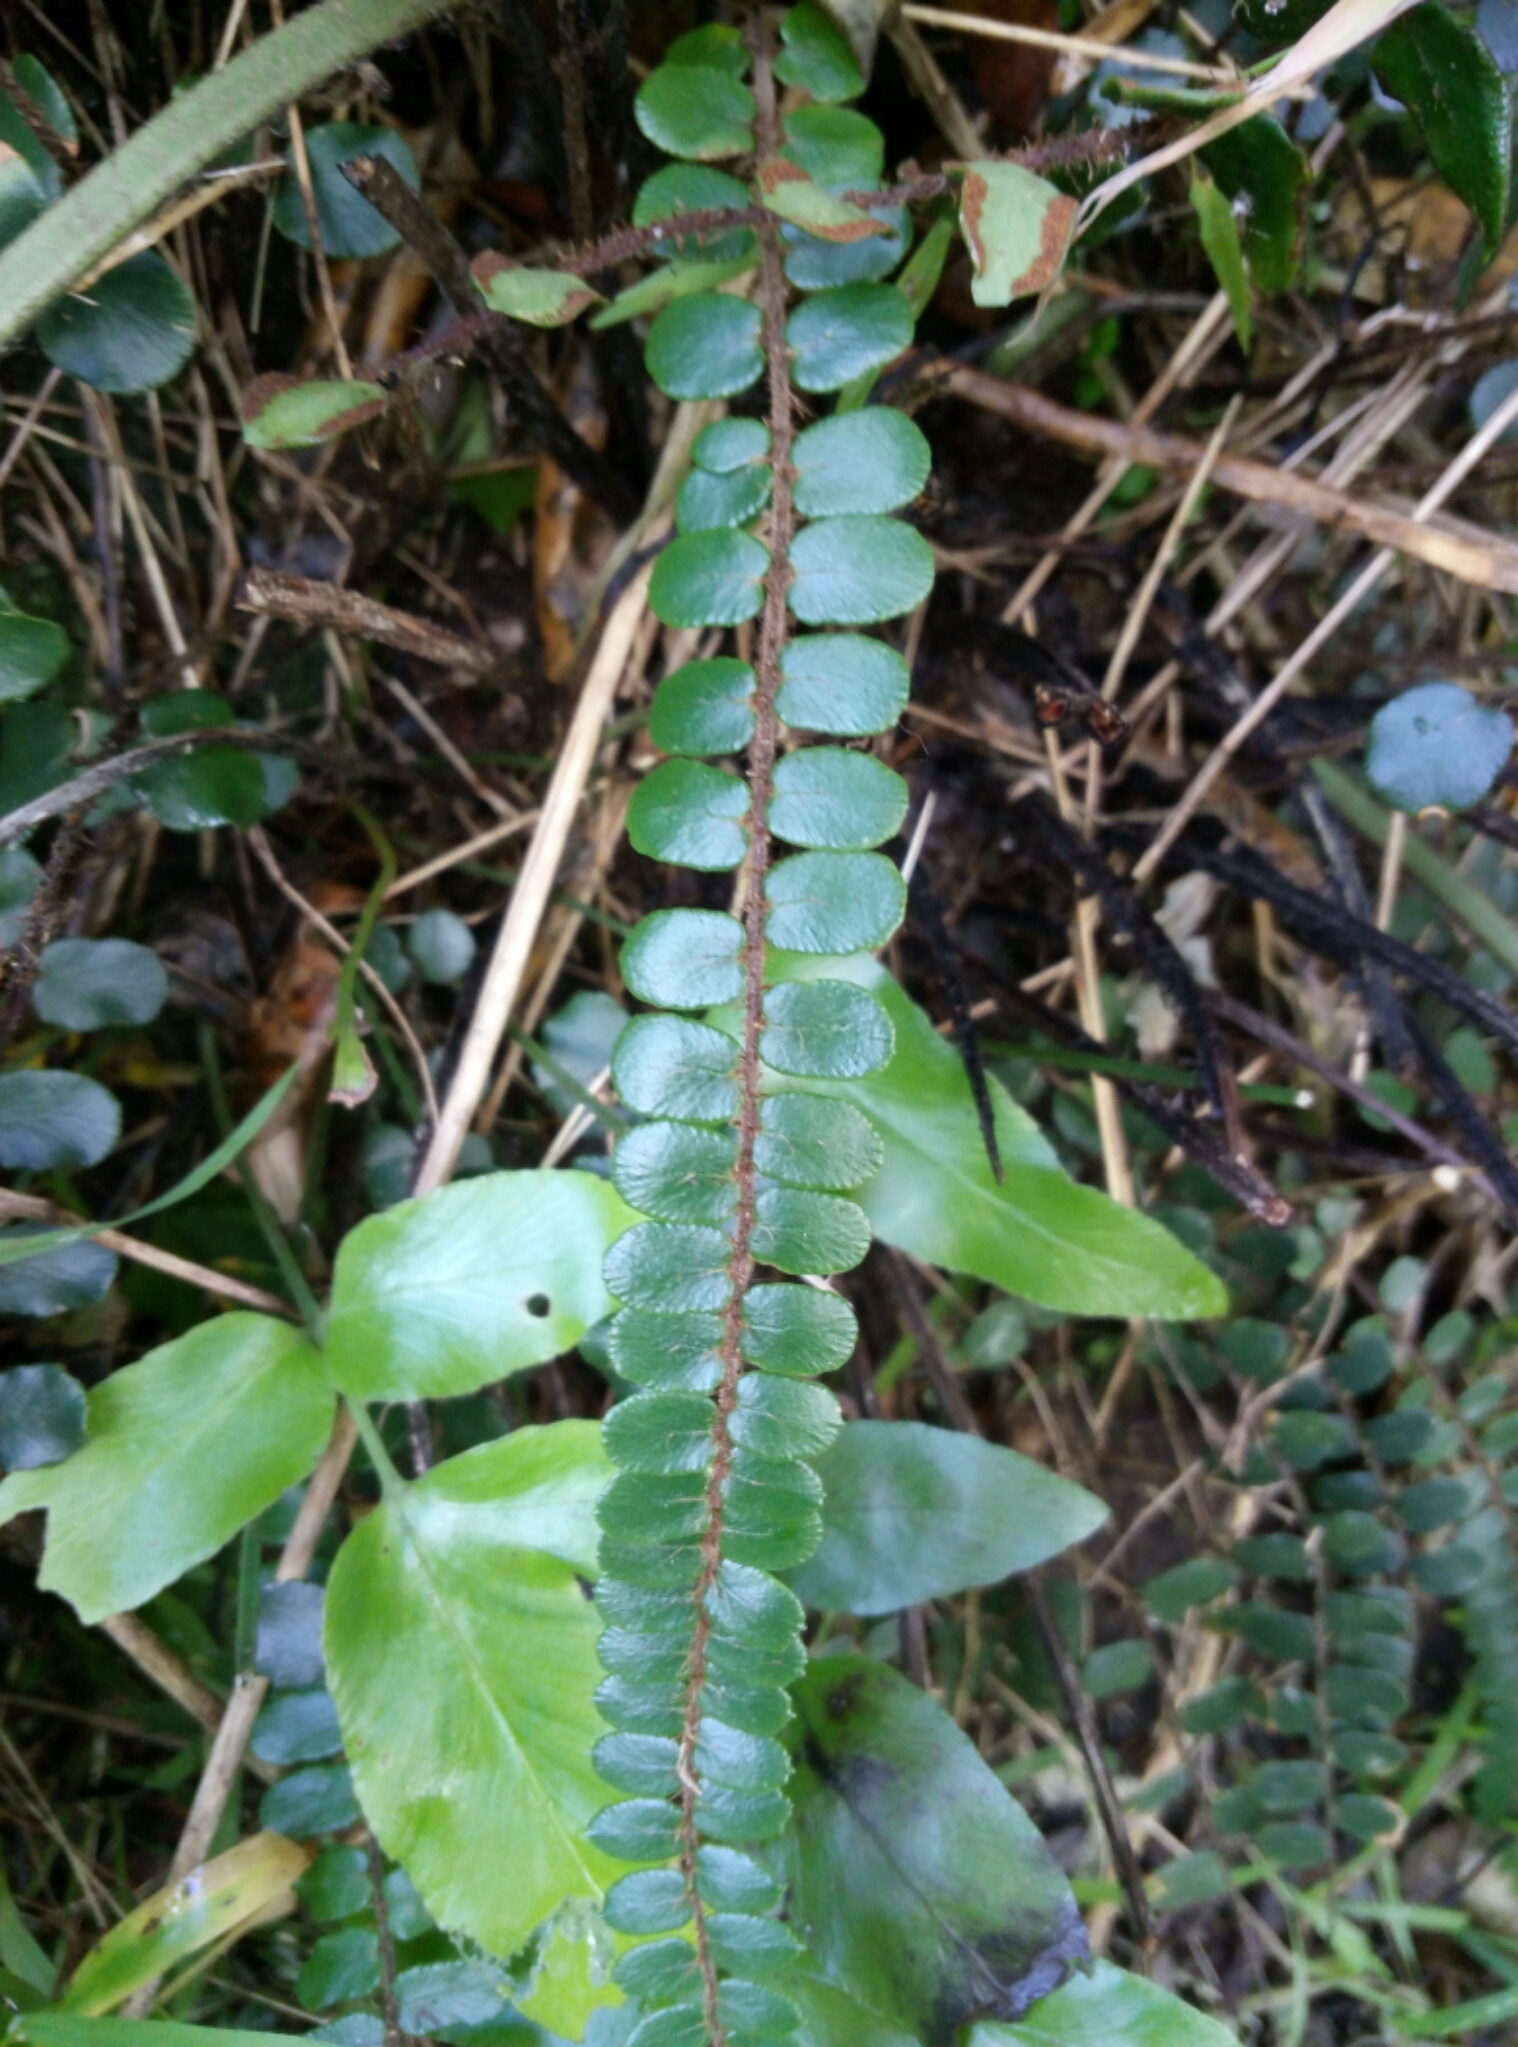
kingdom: Plantae
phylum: Tracheophyta
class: Polypodiopsida
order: Polypodiales
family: Pteridaceae
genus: Pellaea
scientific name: Pellaea rotundifolia
